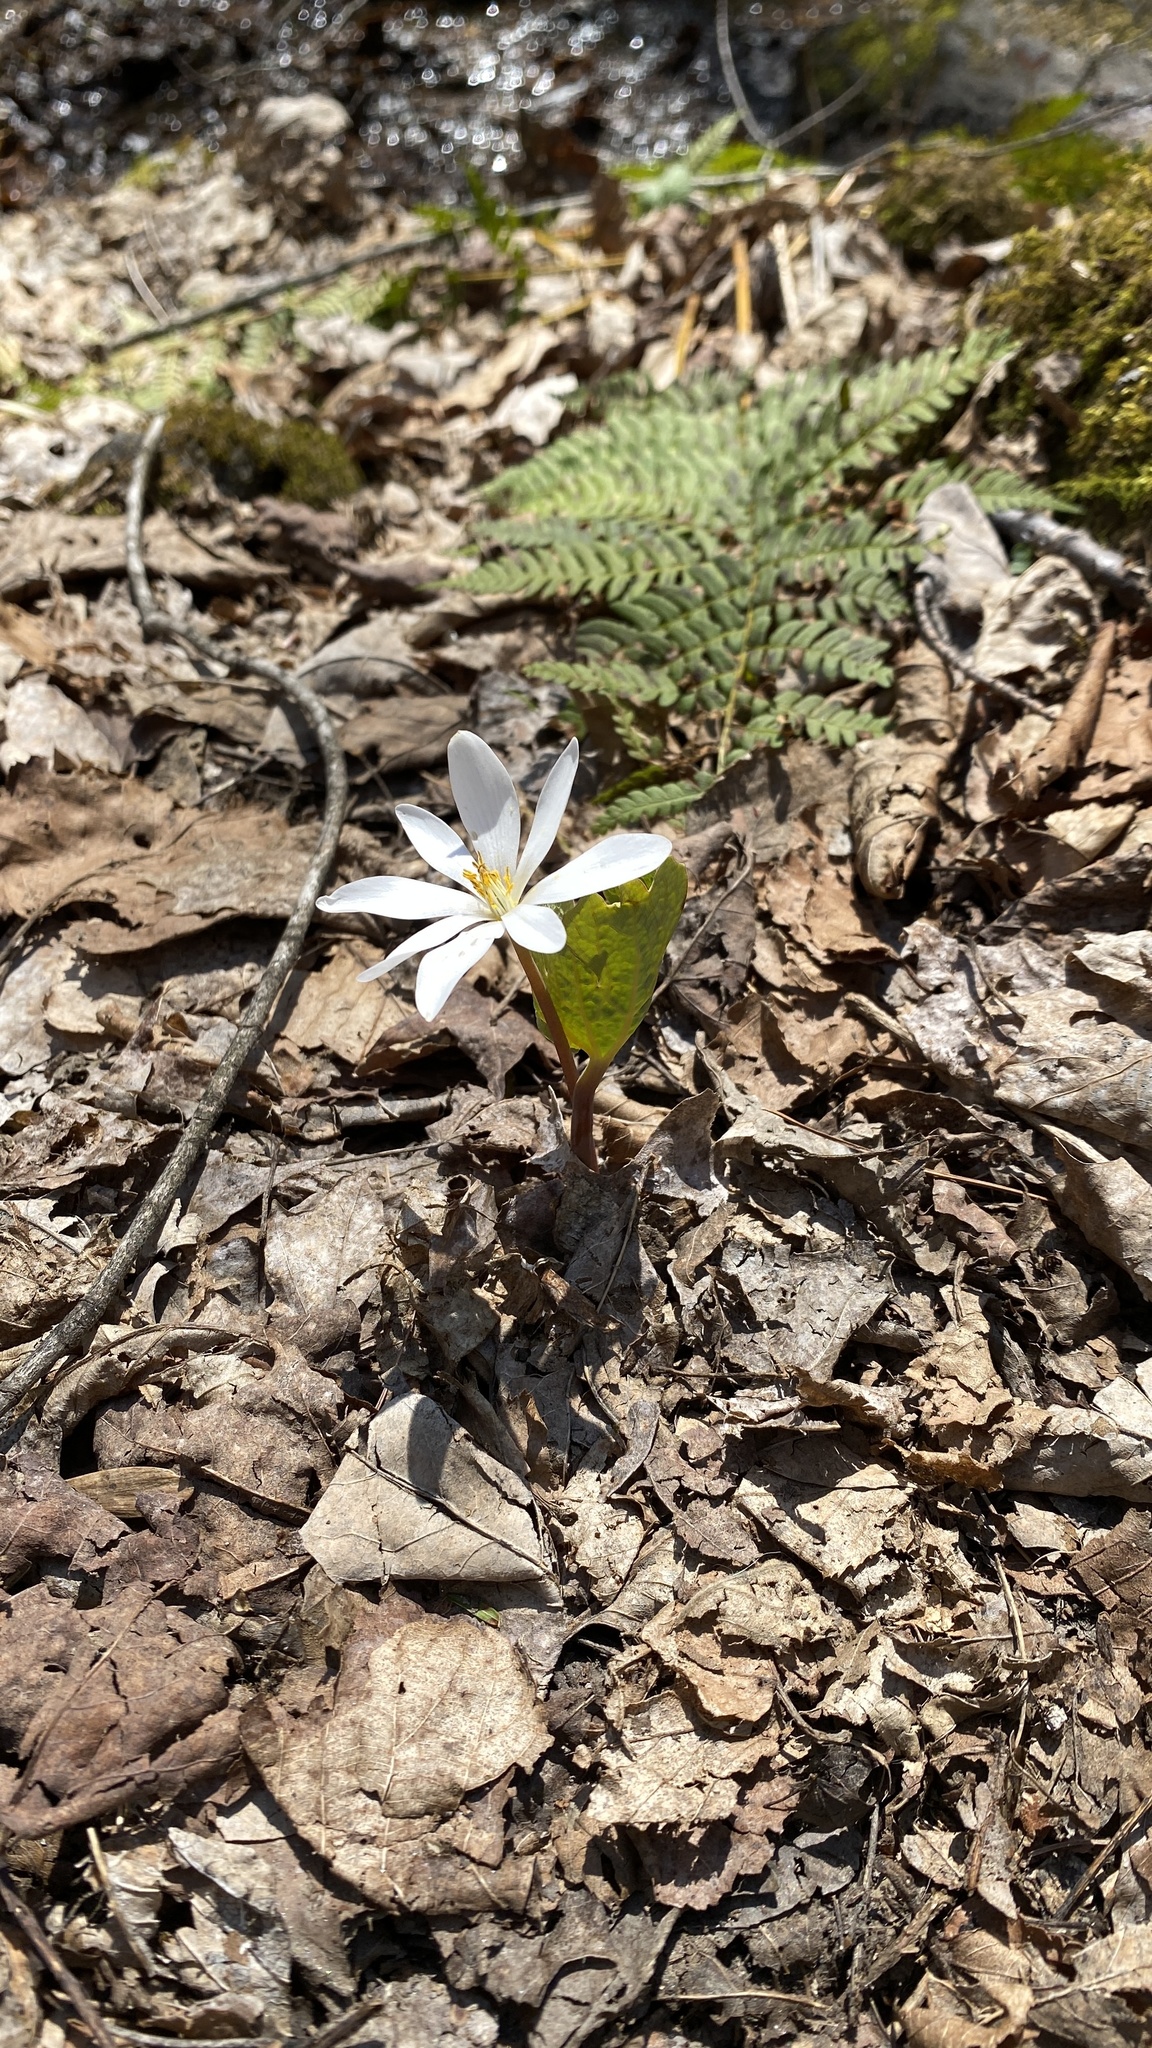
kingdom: Plantae
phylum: Tracheophyta
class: Magnoliopsida
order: Ranunculales
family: Papaveraceae
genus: Sanguinaria
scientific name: Sanguinaria canadensis
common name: Bloodroot
